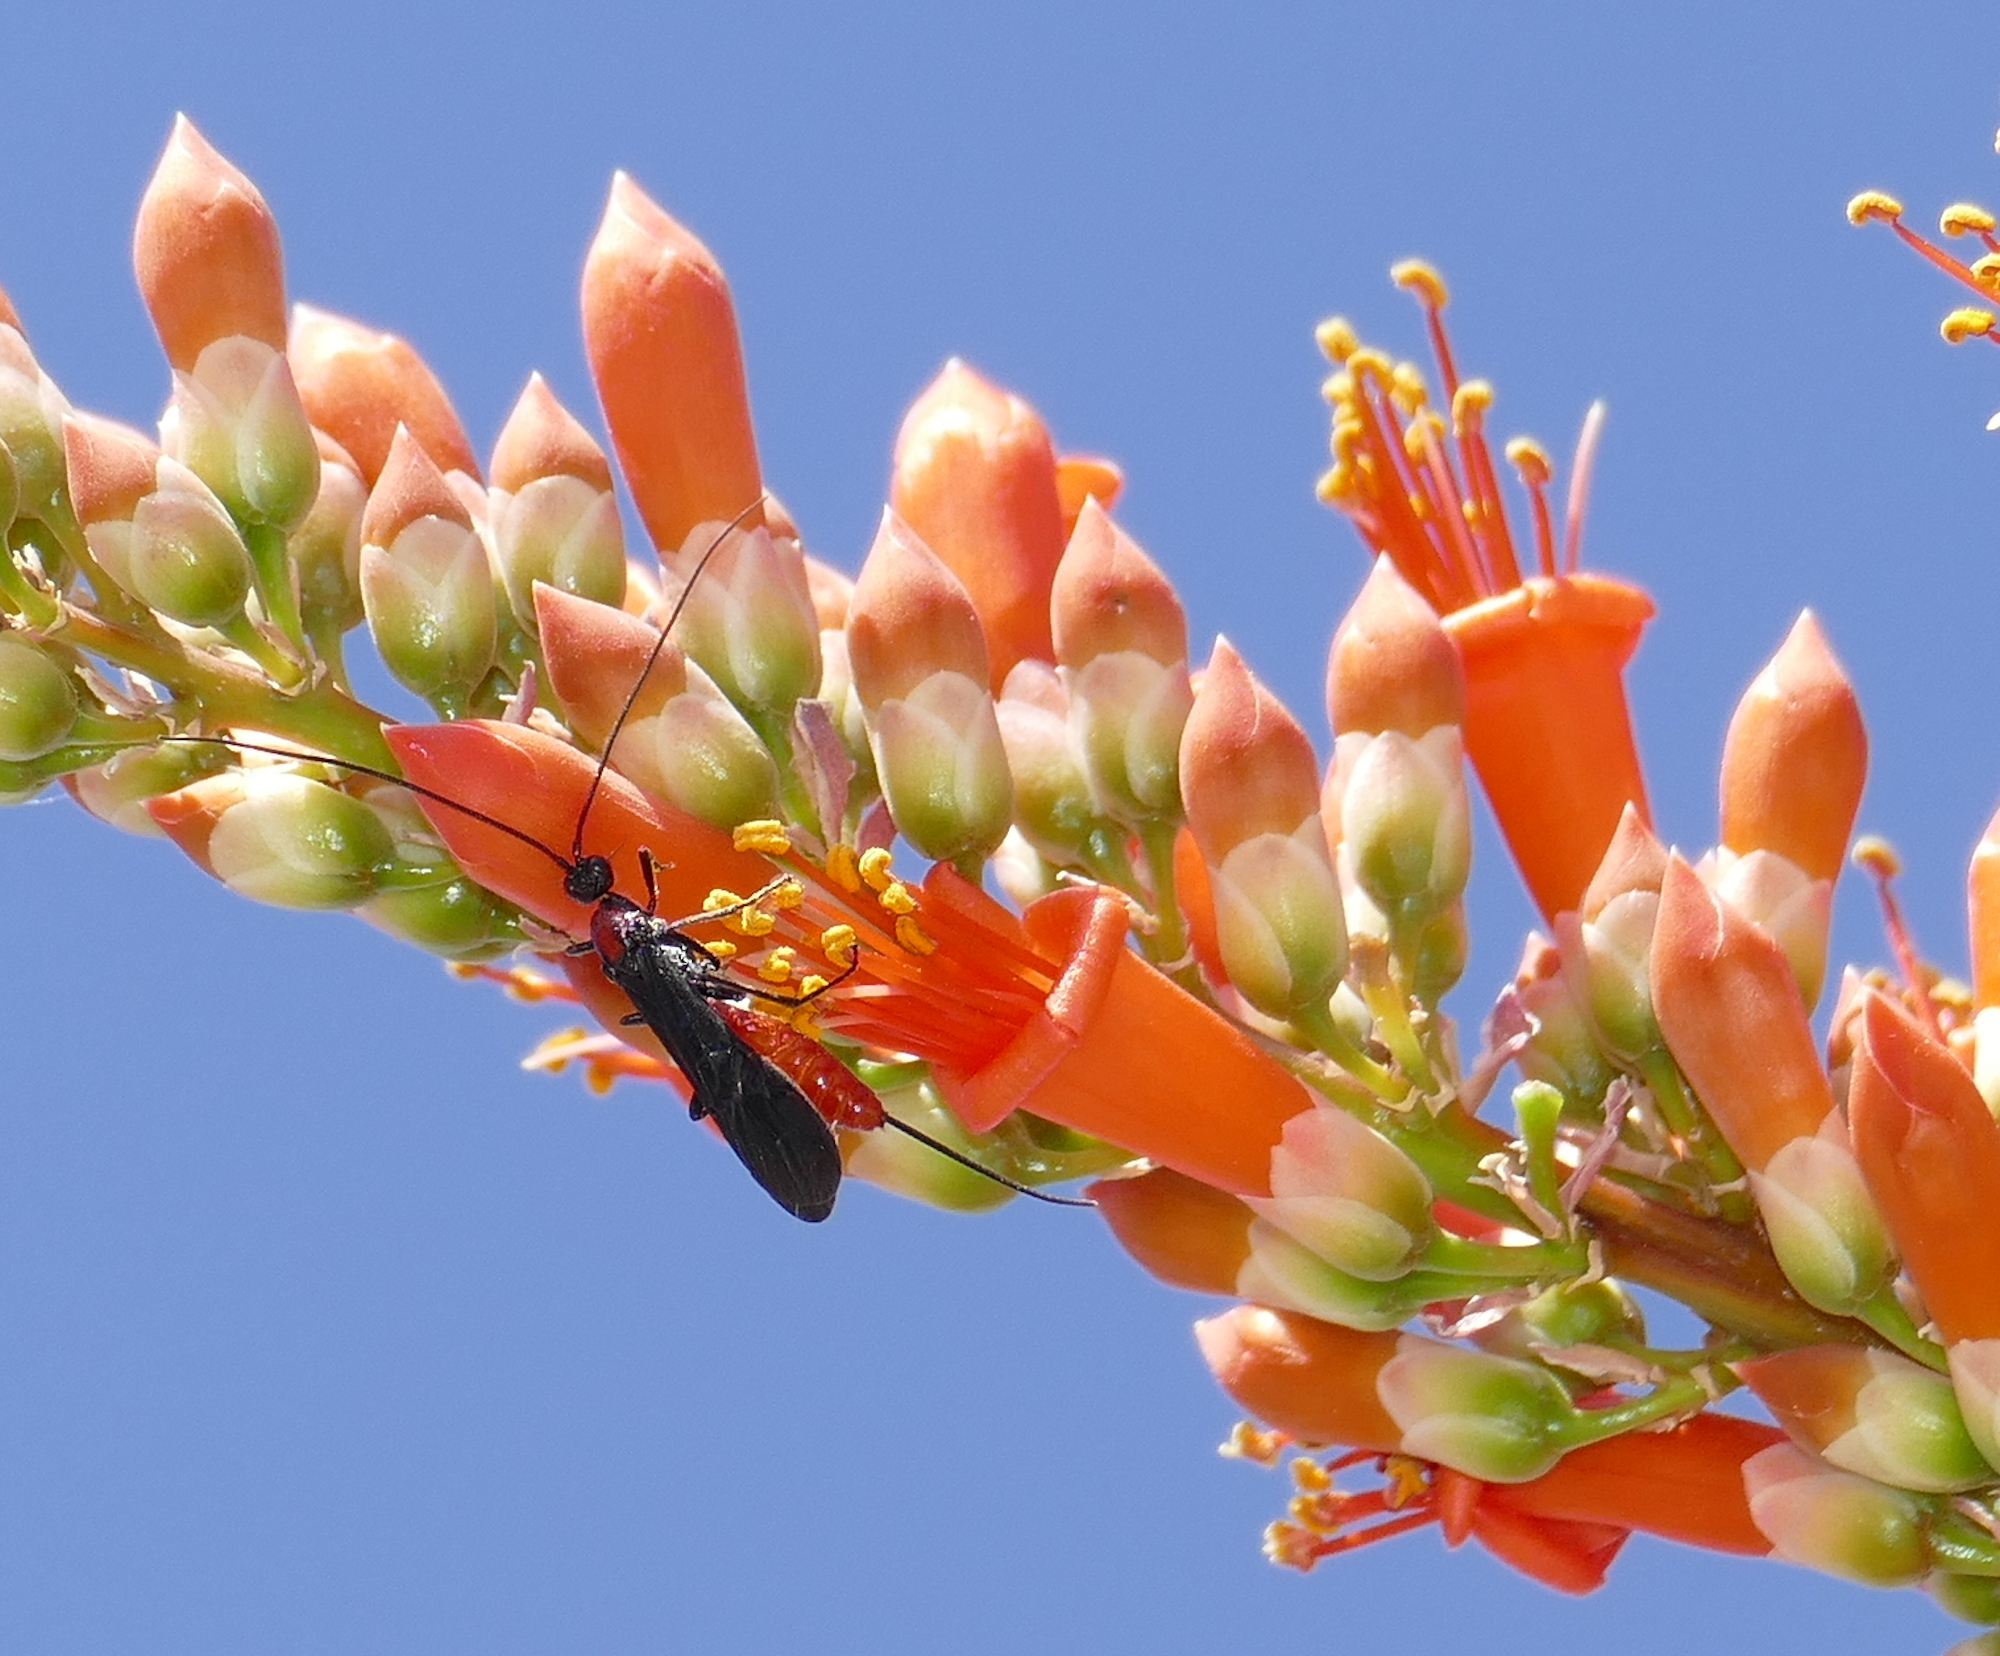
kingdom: Animalia
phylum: Arthropoda
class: Insecta
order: Hymenoptera
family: Braconidae
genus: Atanycolus
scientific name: Atanycolus
